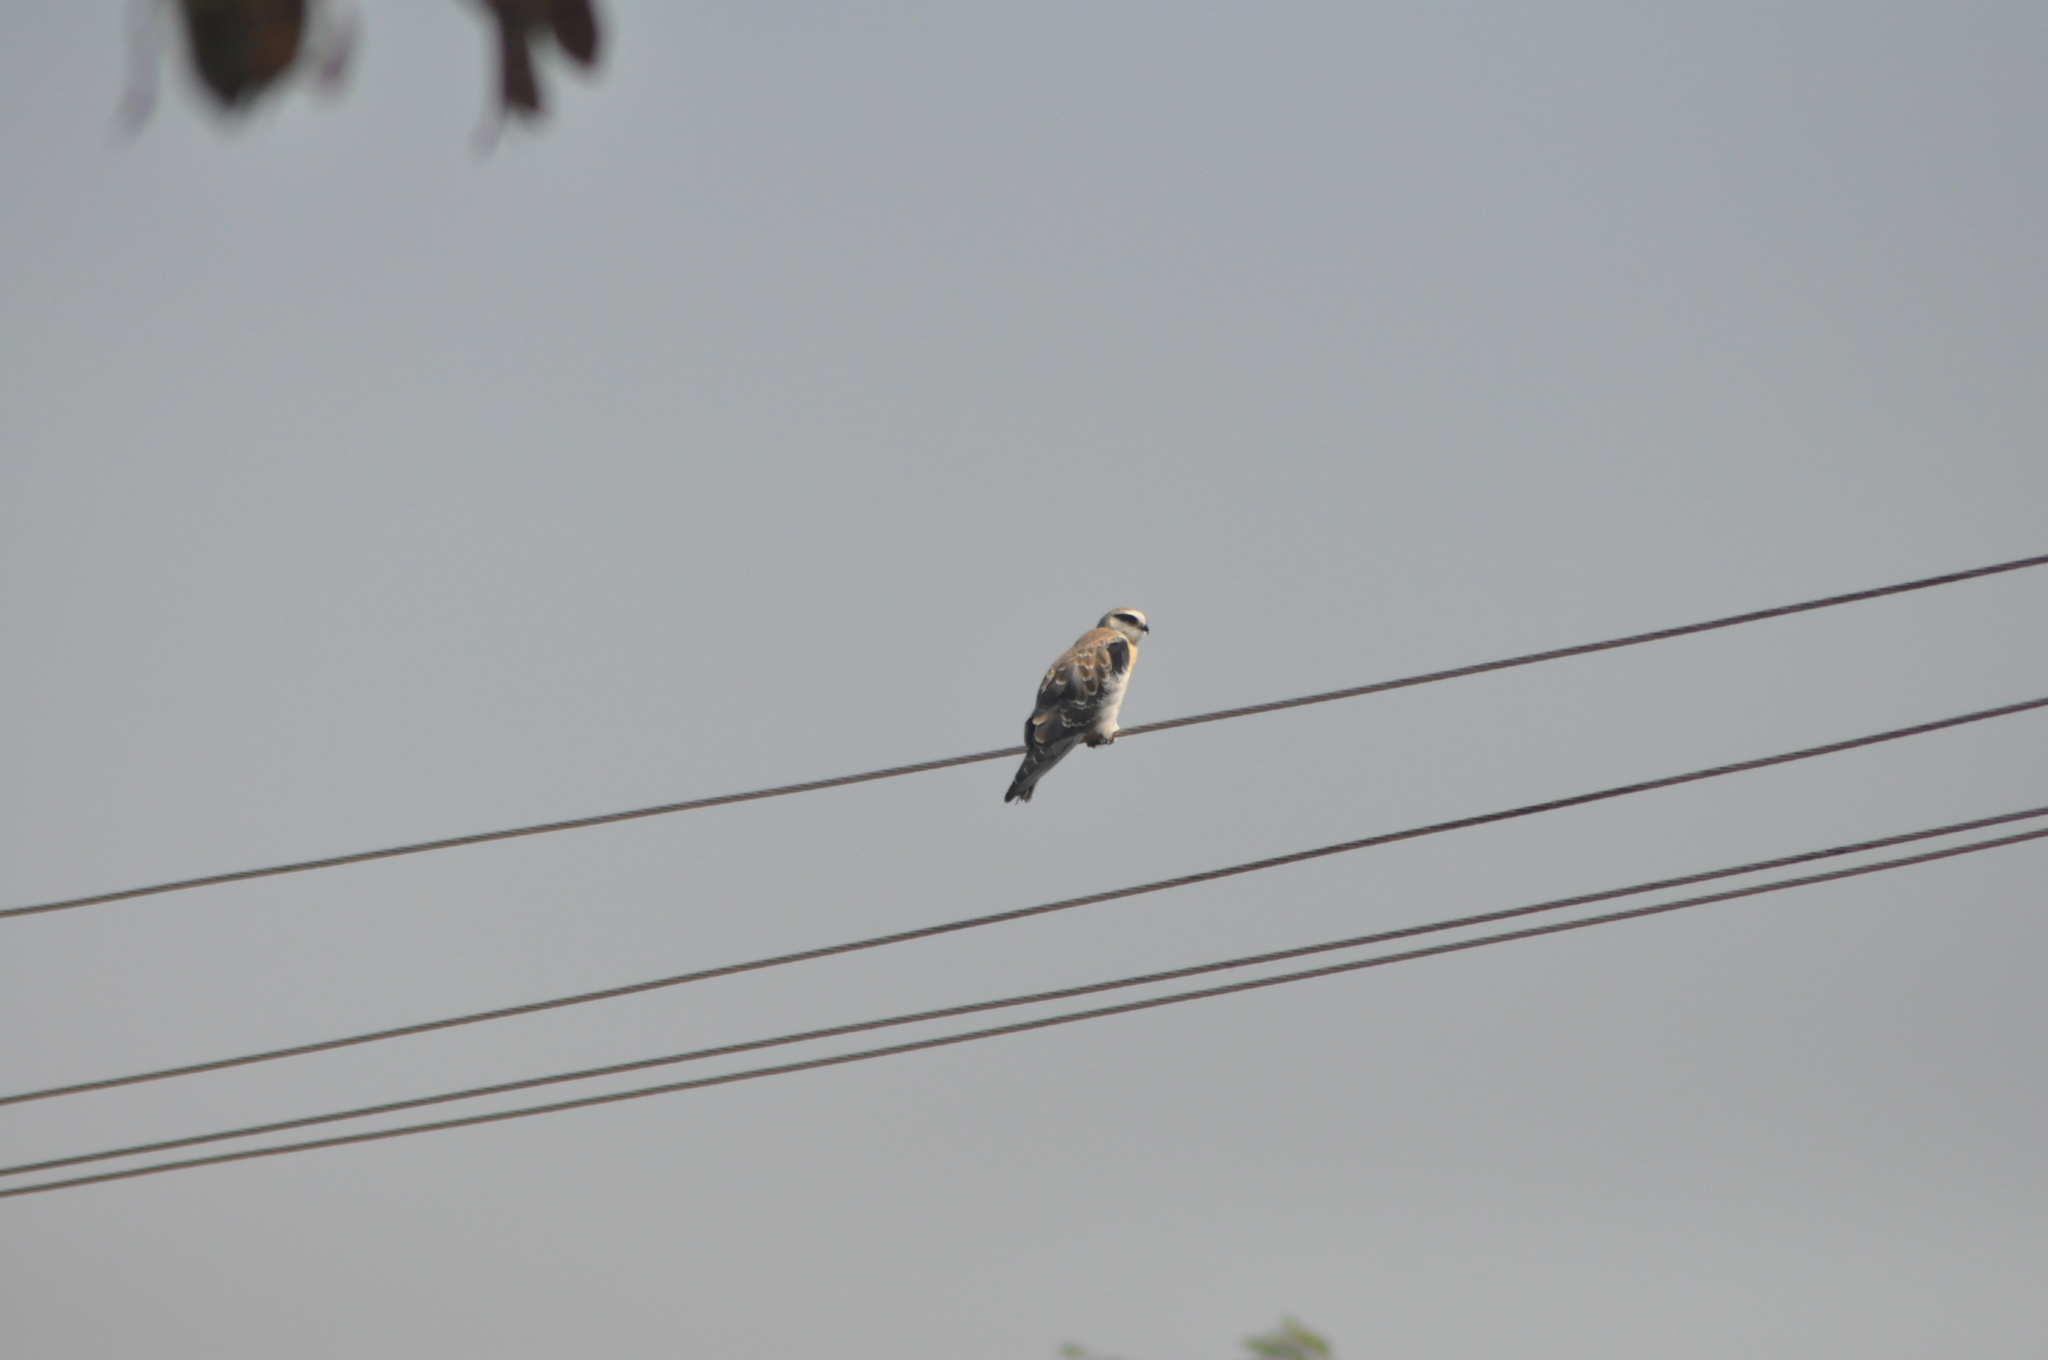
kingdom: Animalia
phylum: Chordata
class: Aves
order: Accipitriformes
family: Accipitridae
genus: Elanus
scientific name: Elanus caeruleus
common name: Black-winged kite
